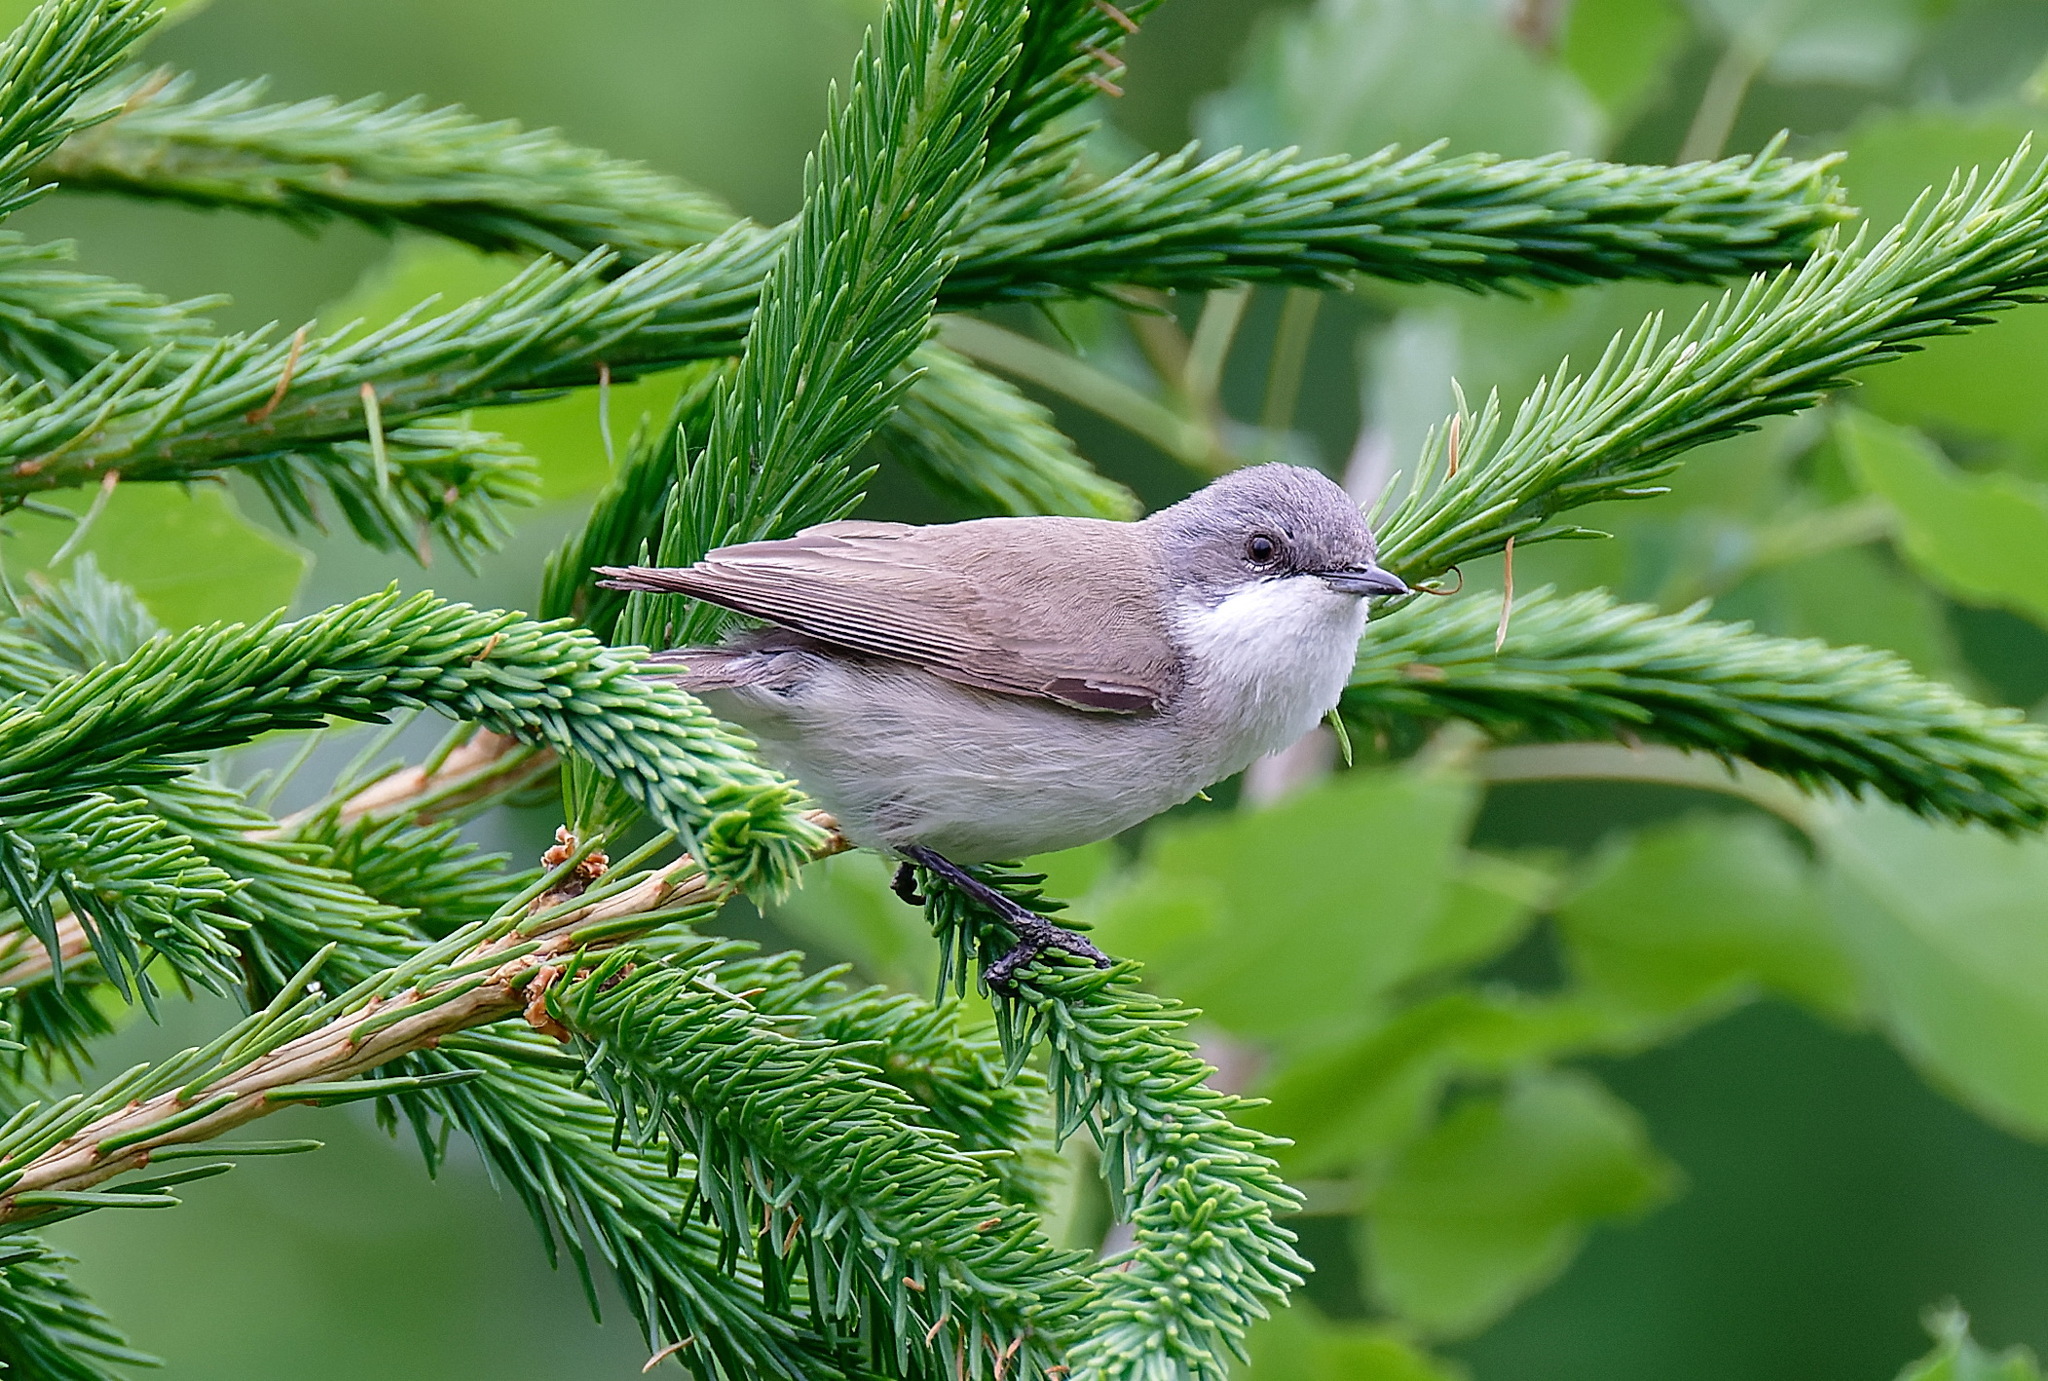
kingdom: Animalia
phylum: Chordata
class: Aves
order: Passeriformes
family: Sylviidae
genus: Sylvia
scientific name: Sylvia curruca
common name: Lesser whitethroat
